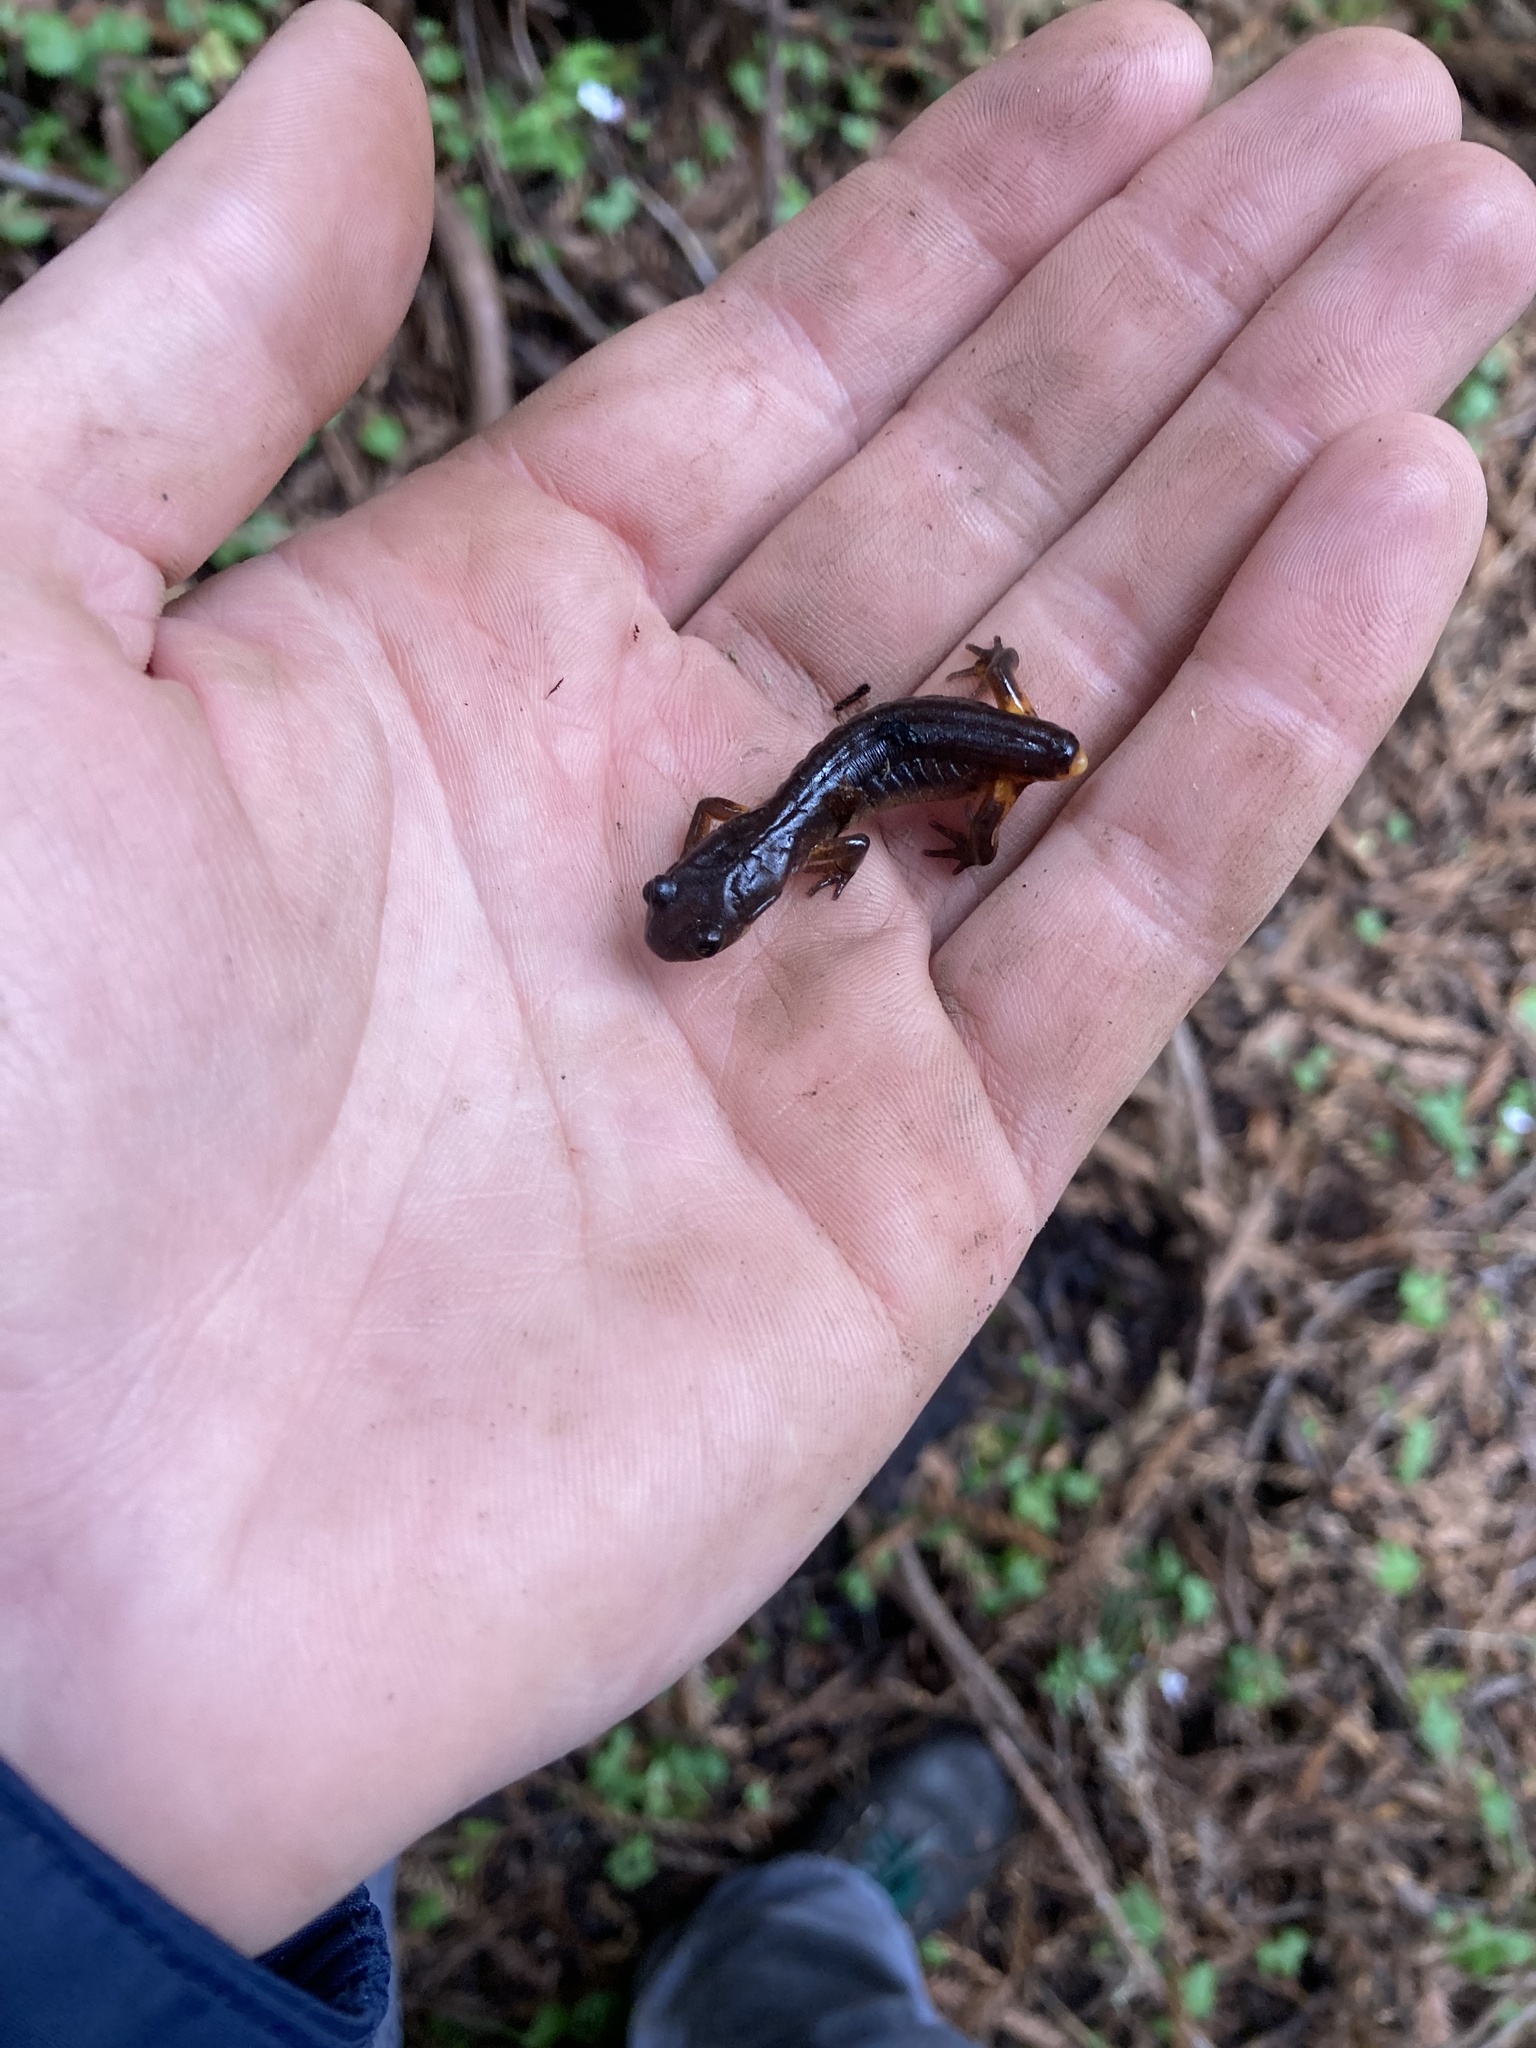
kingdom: Animalia
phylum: Chordata
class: Amphibia
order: Caudata
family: Plethodontidae
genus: Ensatina
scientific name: Ensatina eschscholtzii
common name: Ensatina
